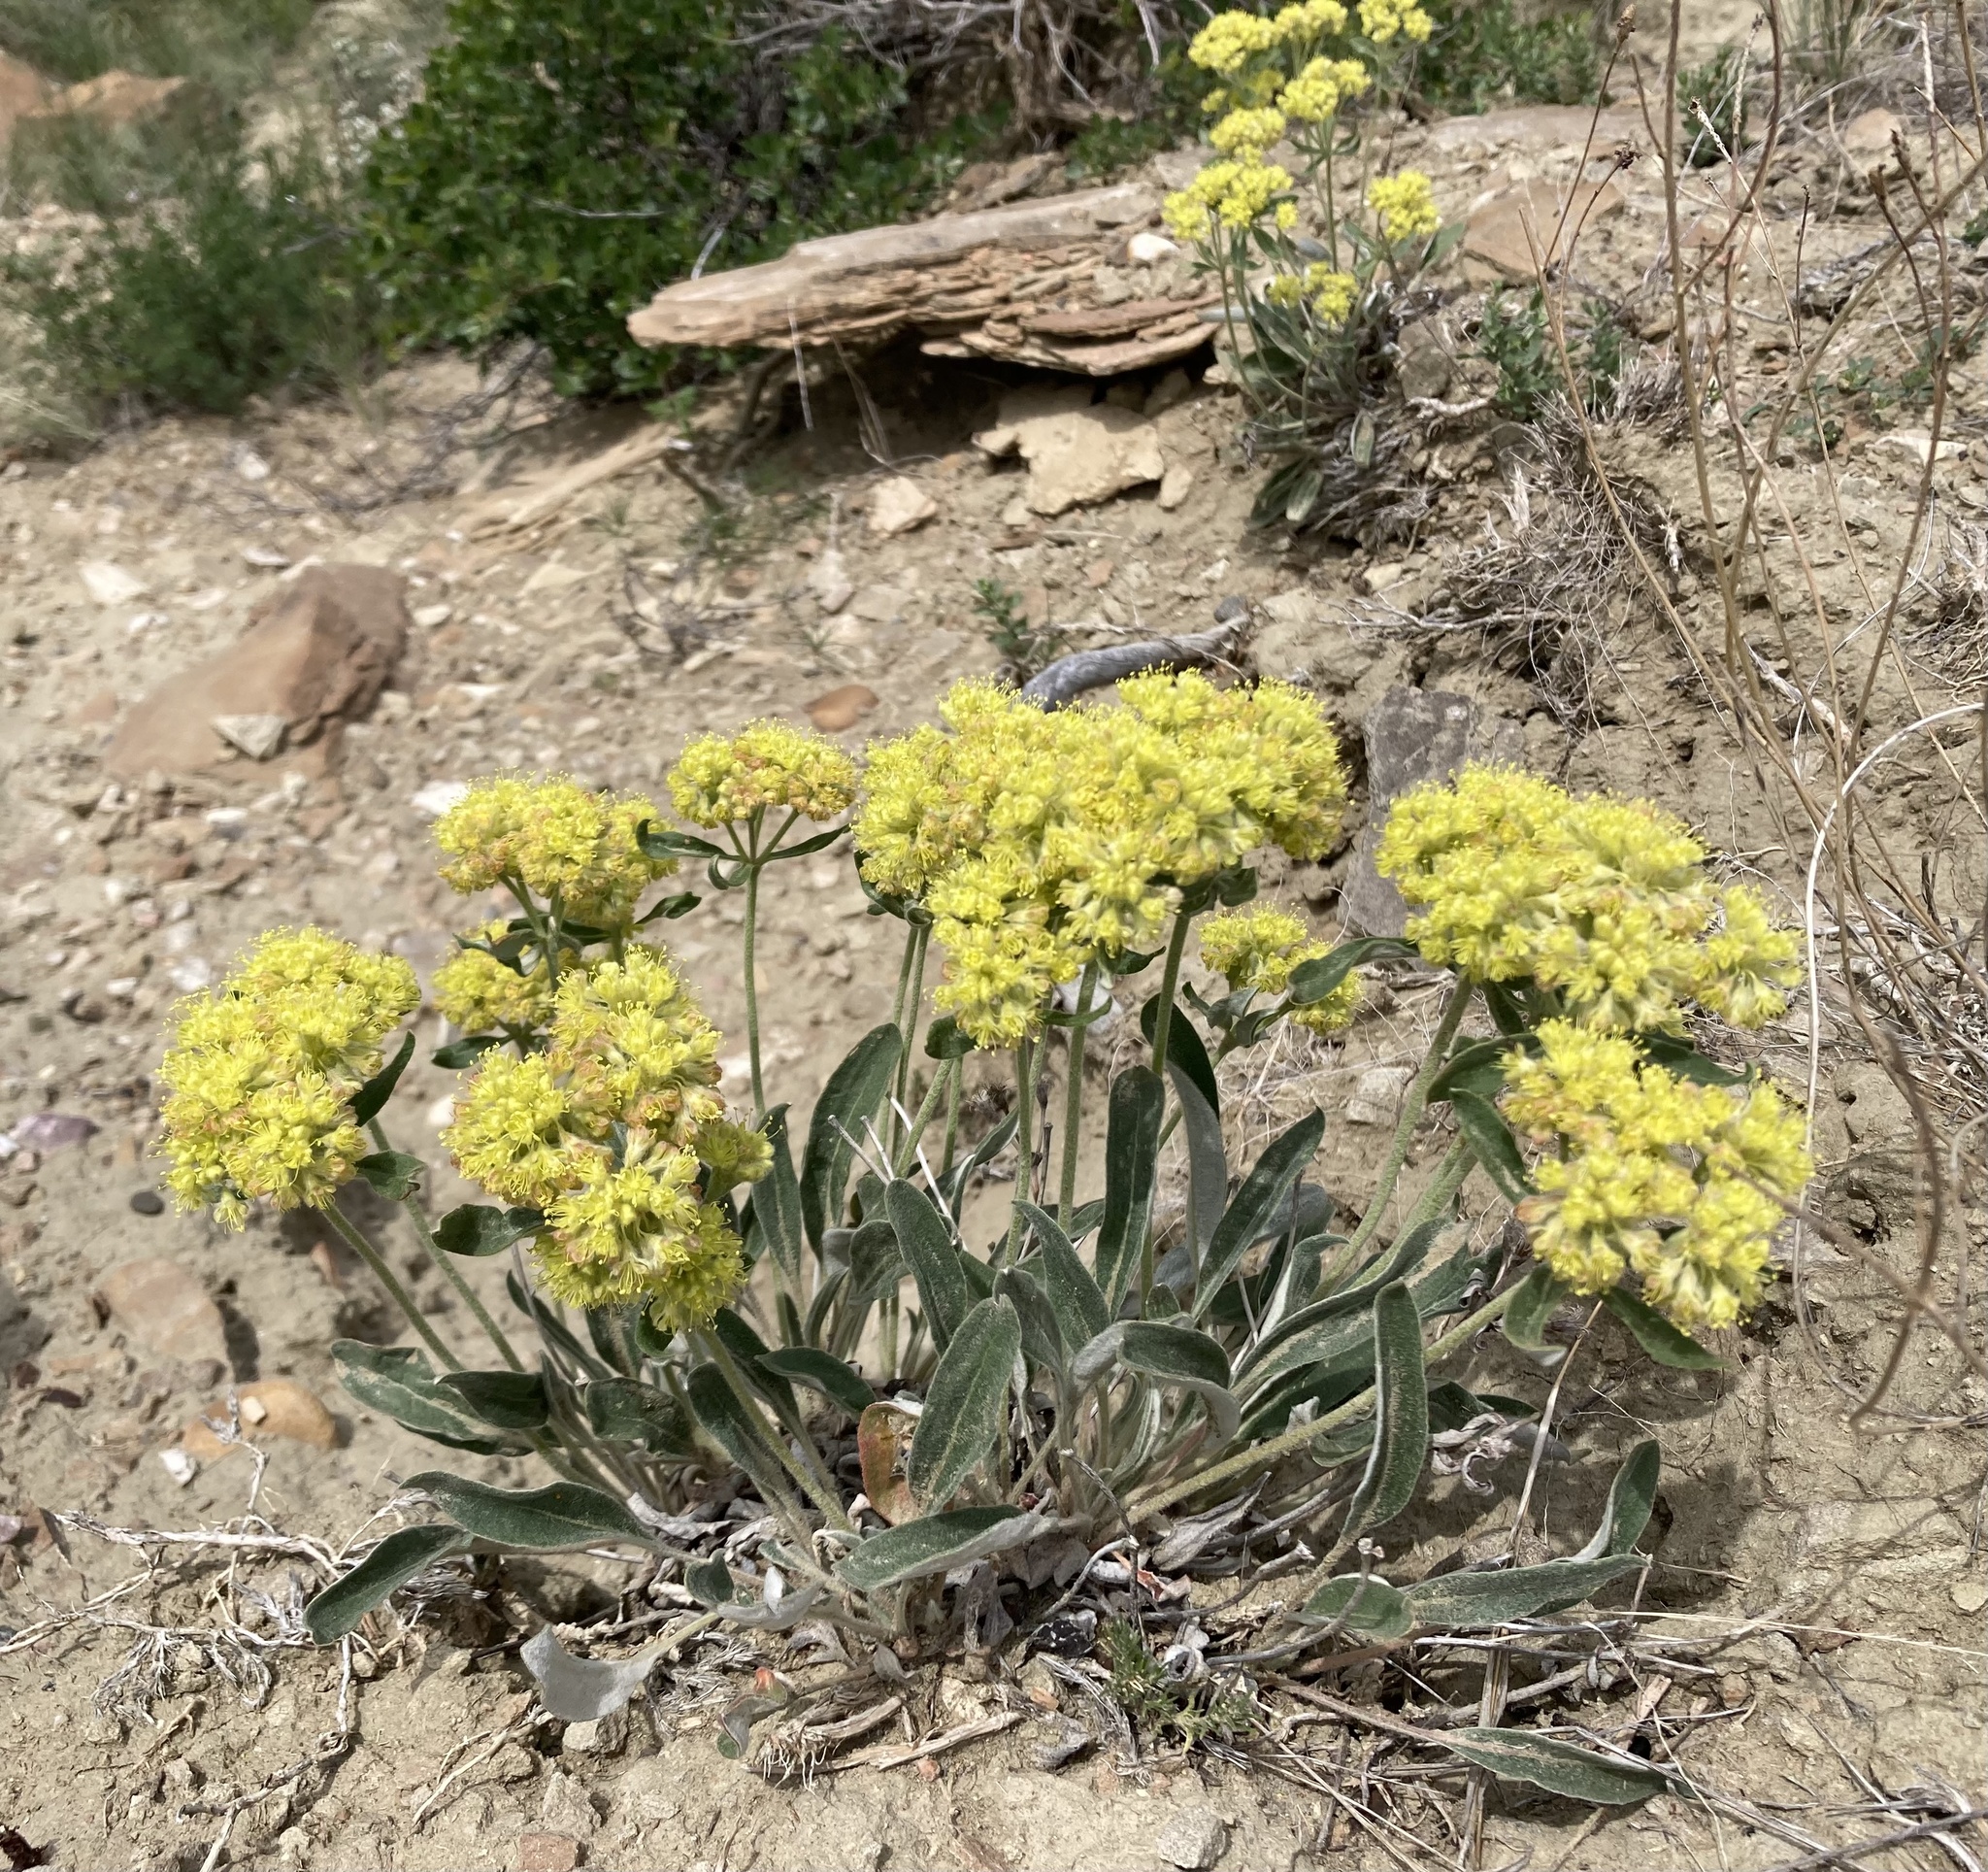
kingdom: Plantae
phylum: Tracheophyta
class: Magnoliopsida
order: Caryophyllales
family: Polygonaceae
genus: Eriogonum
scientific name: Eriogonum flavum
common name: Alpine golden wild buckwheat
